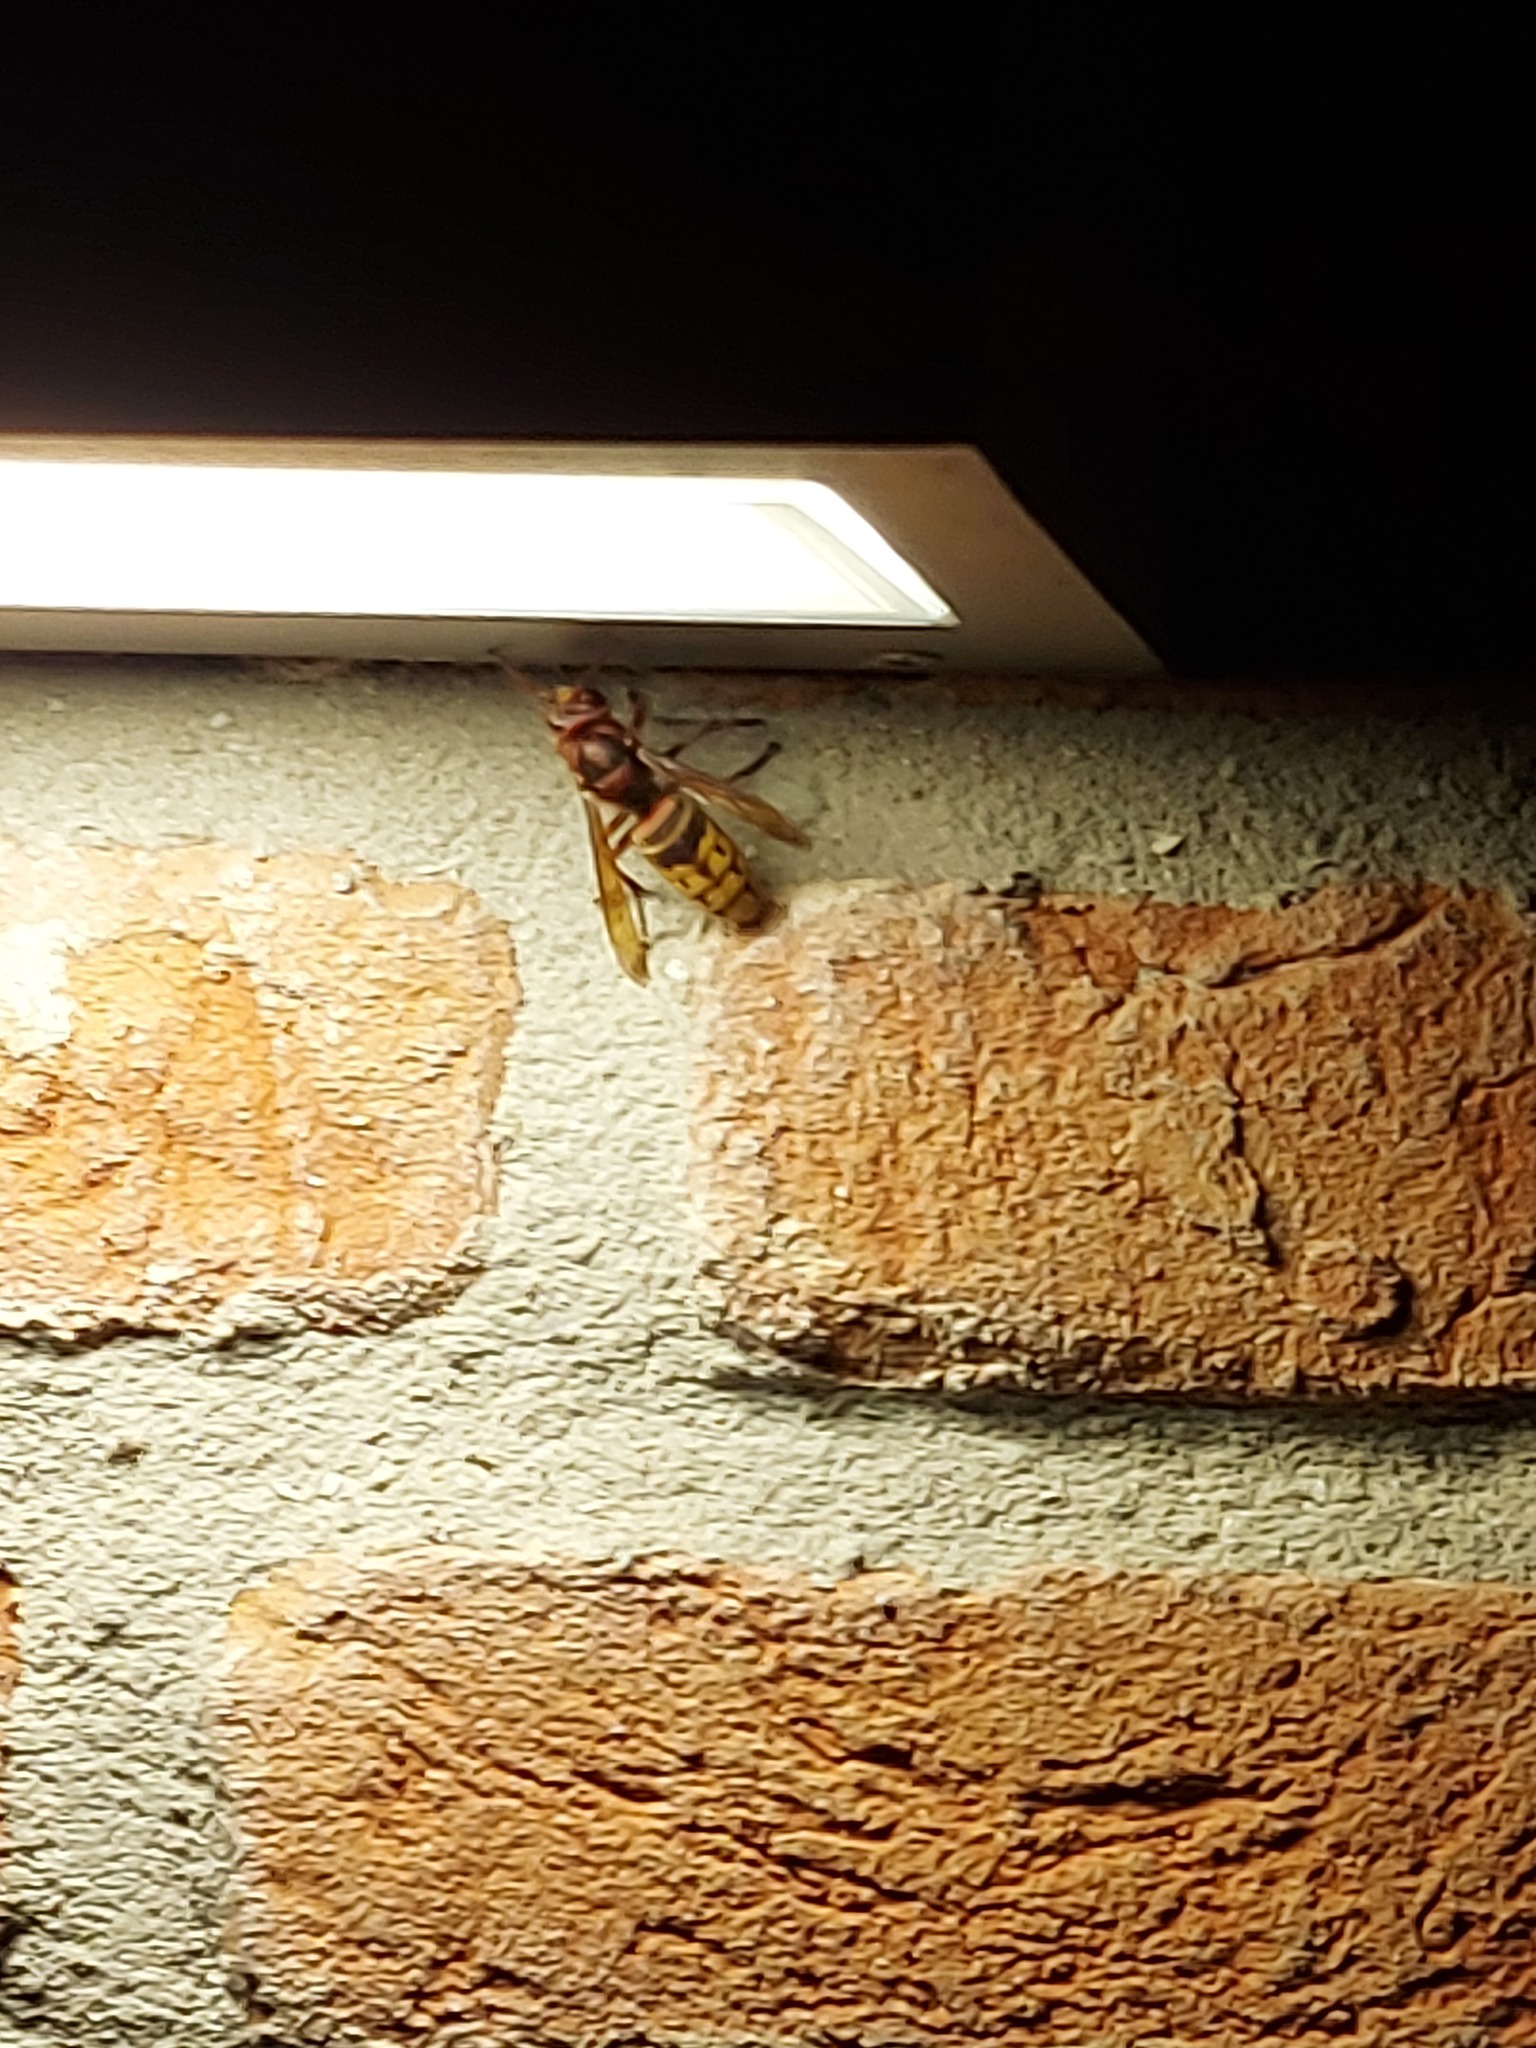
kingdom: Animalia
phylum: Arthropoda
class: Insecta
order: Hymenoptera
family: Vespidae
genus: Vespa
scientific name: Vespa crabro
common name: Hornet
